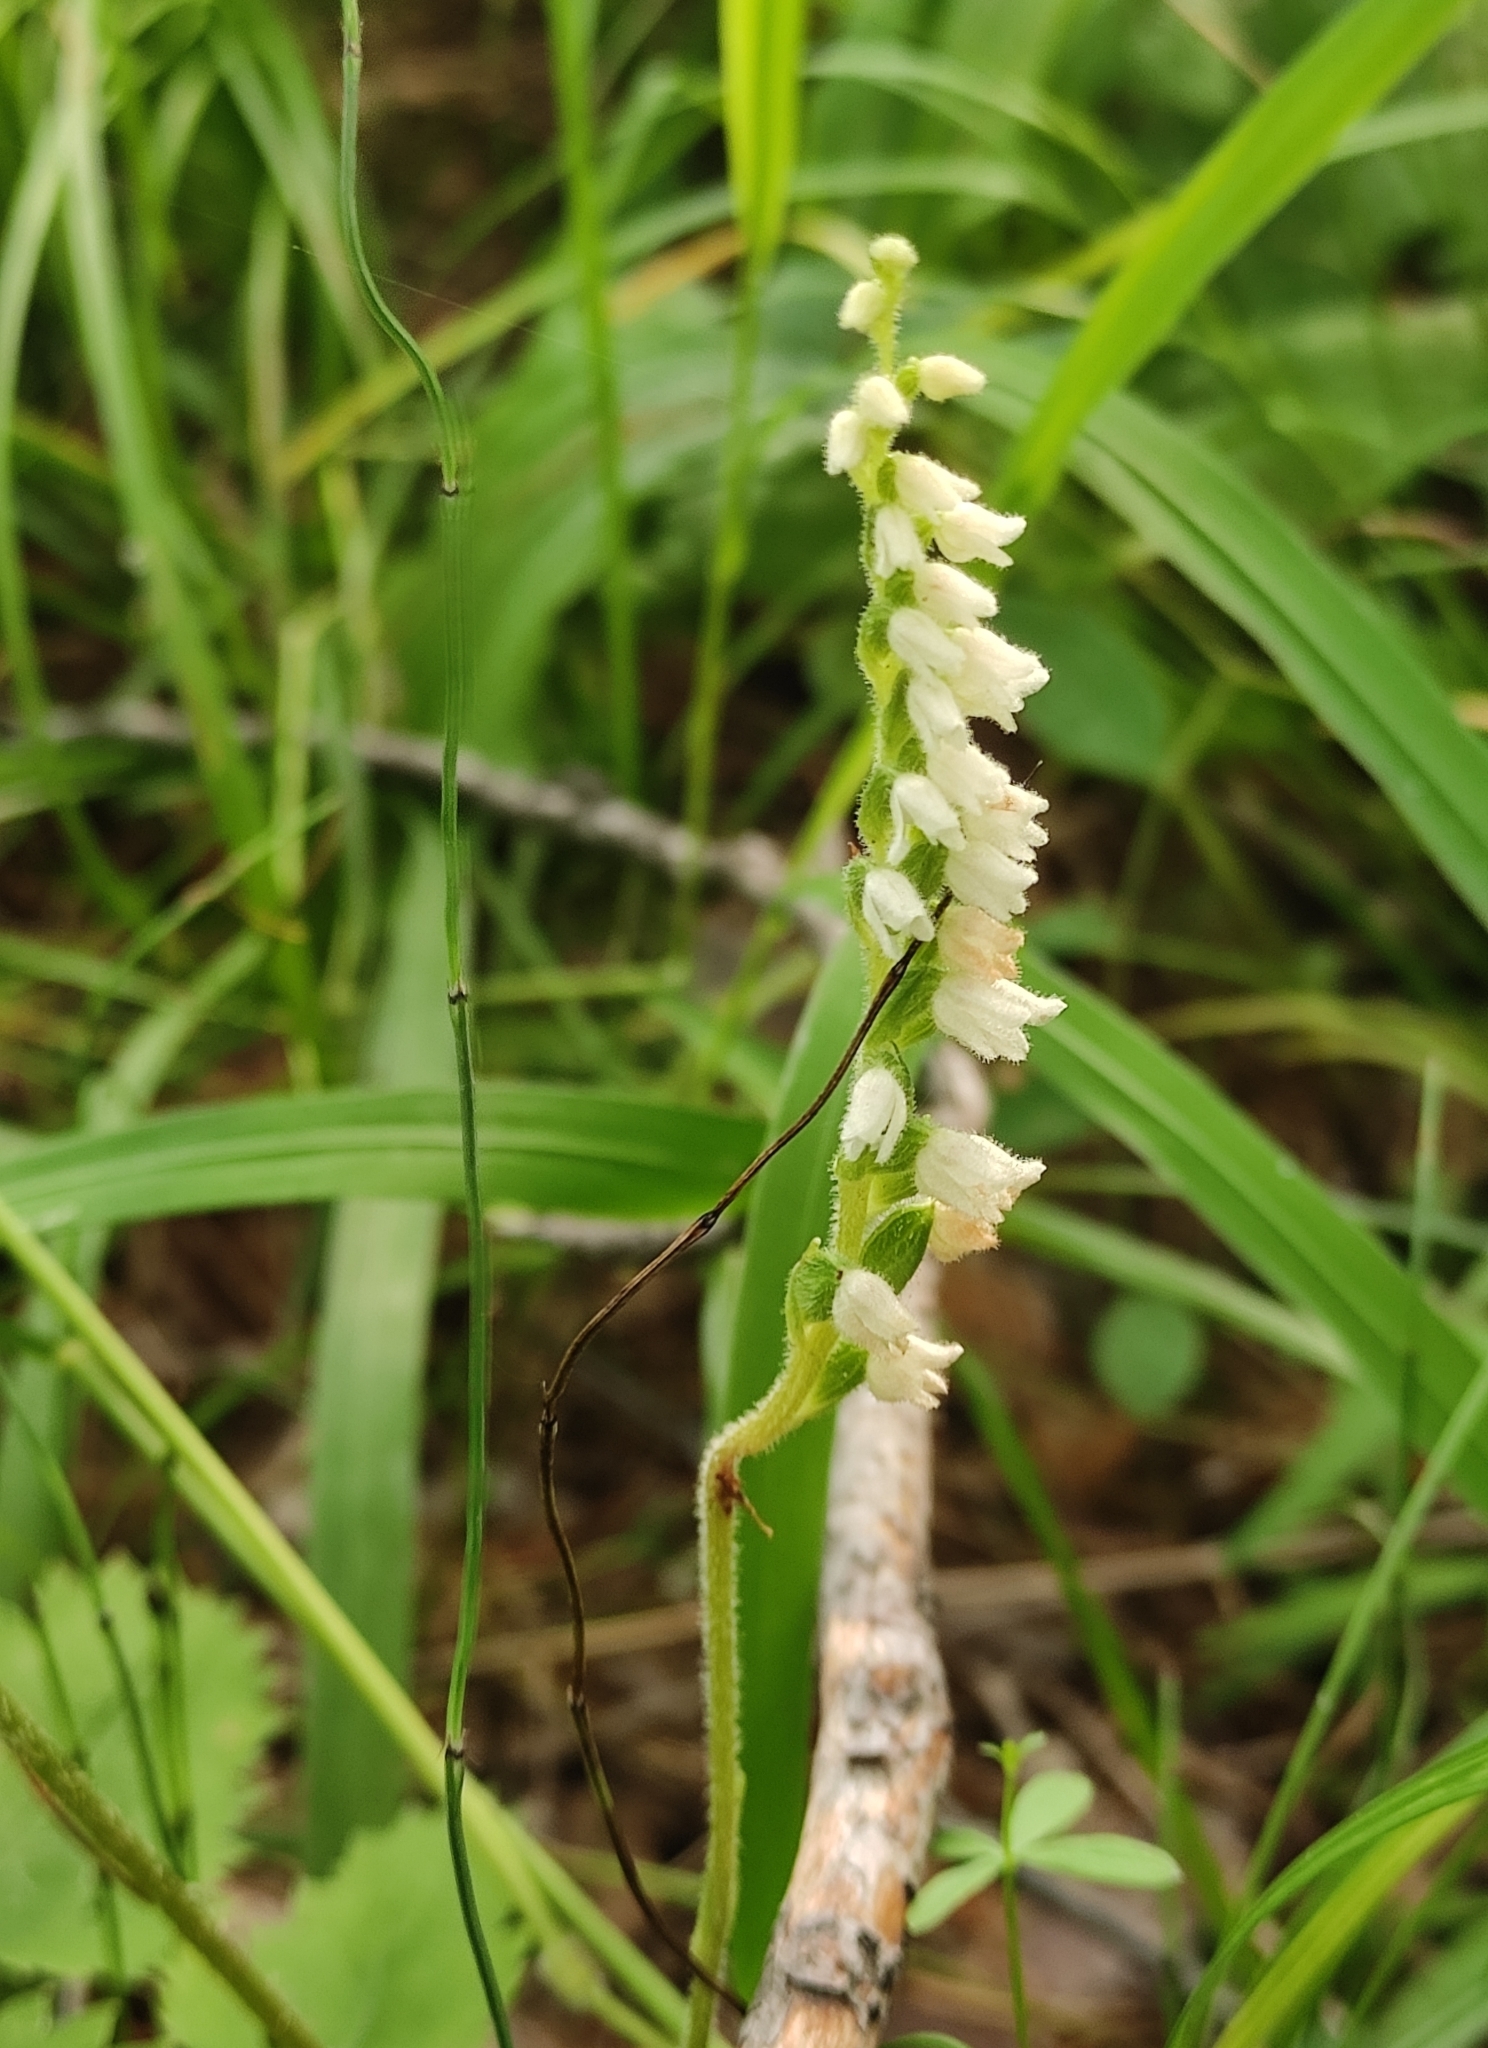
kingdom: Plantae
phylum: Tracheophyta
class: Liliopsida
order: Asparagales
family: Orchidaceae
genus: Goodyera
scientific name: Goodyera repens
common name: Creeping lady's-tresses
